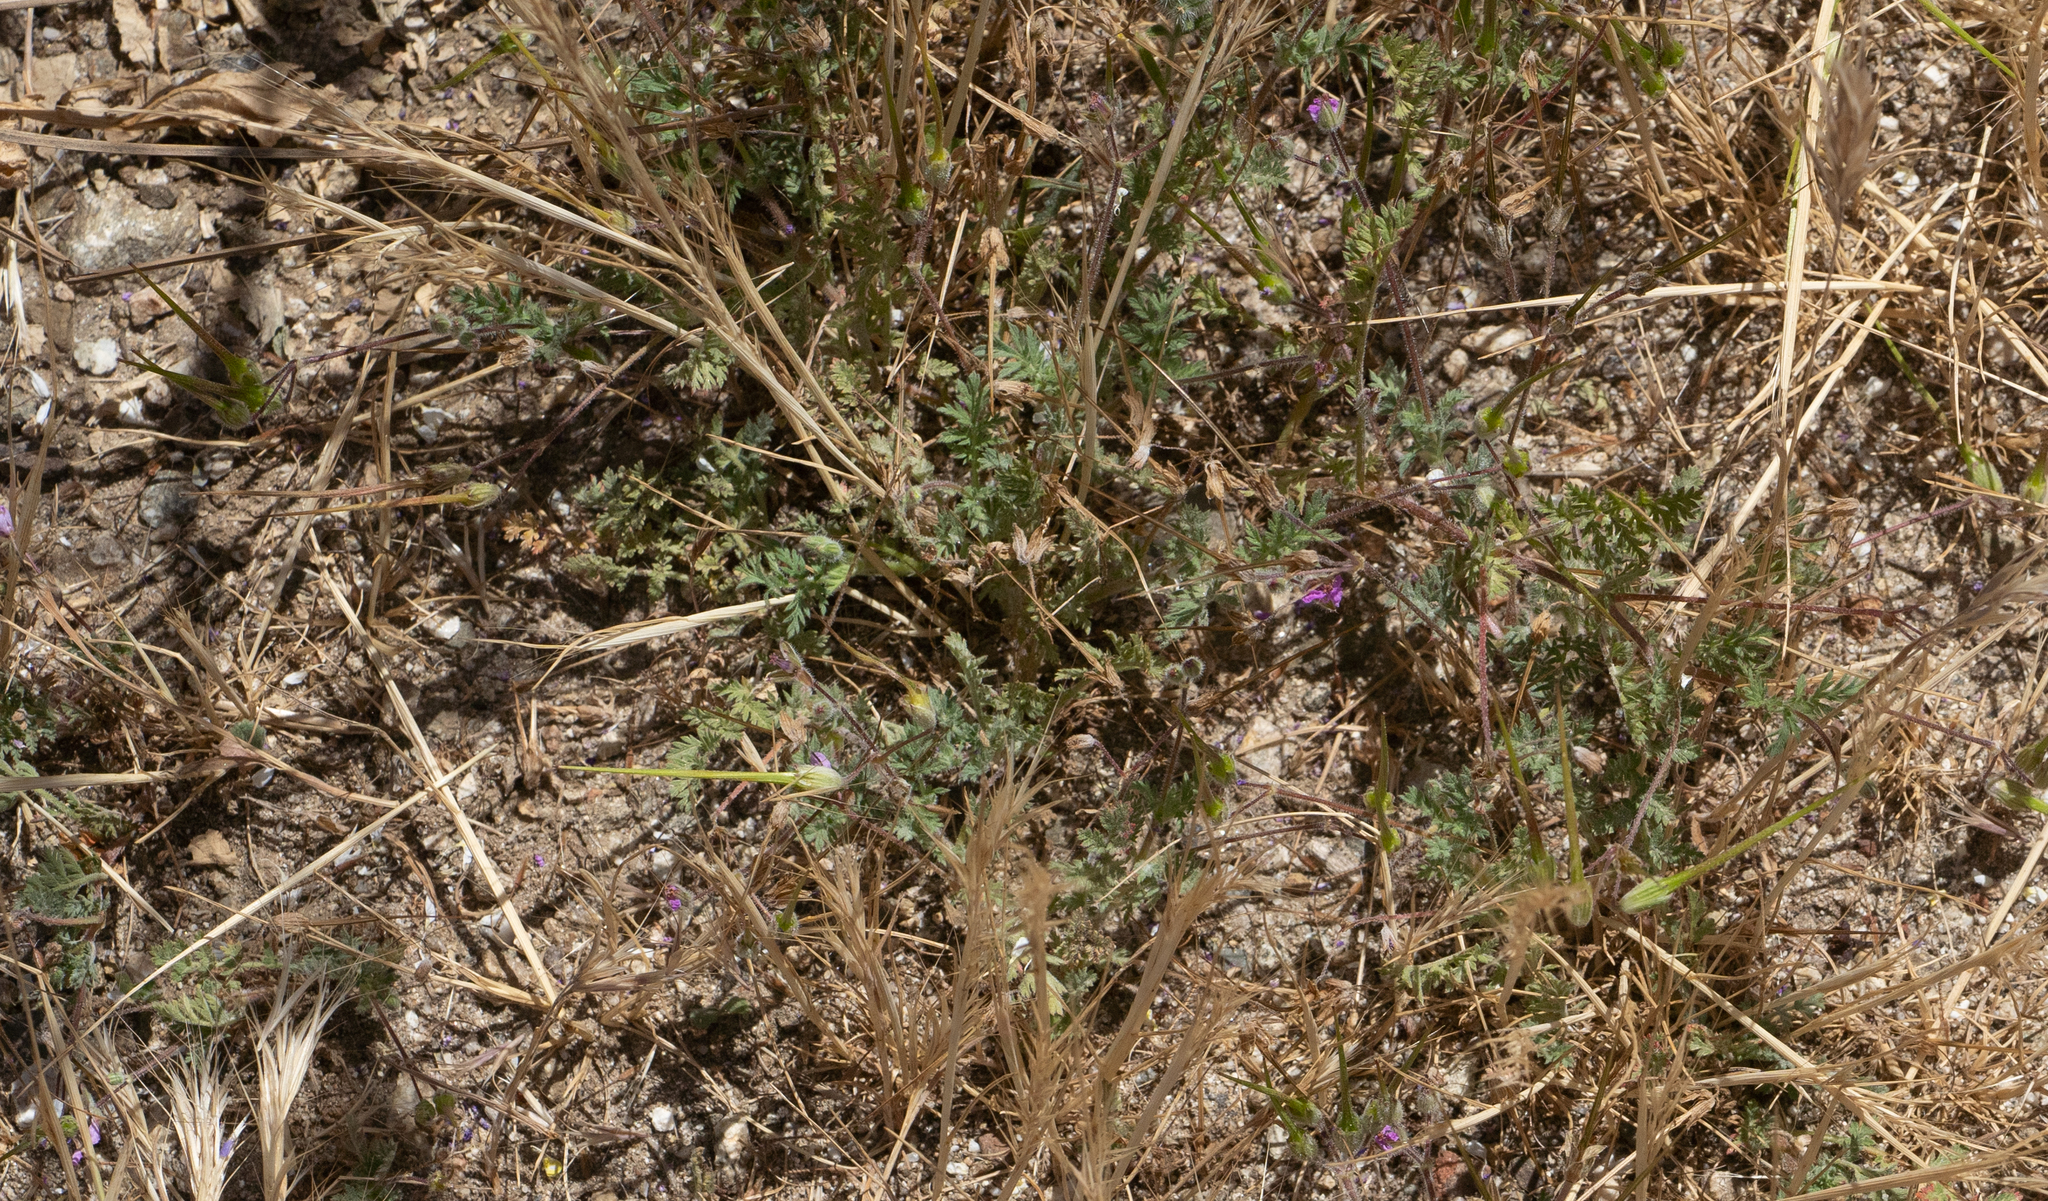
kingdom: Plantae
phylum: Tracheophyta
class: Magnoliopsida
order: Geraniales
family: Geraniaceae
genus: Erodium
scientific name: Erodium cicutarium
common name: Common stork's-bill
